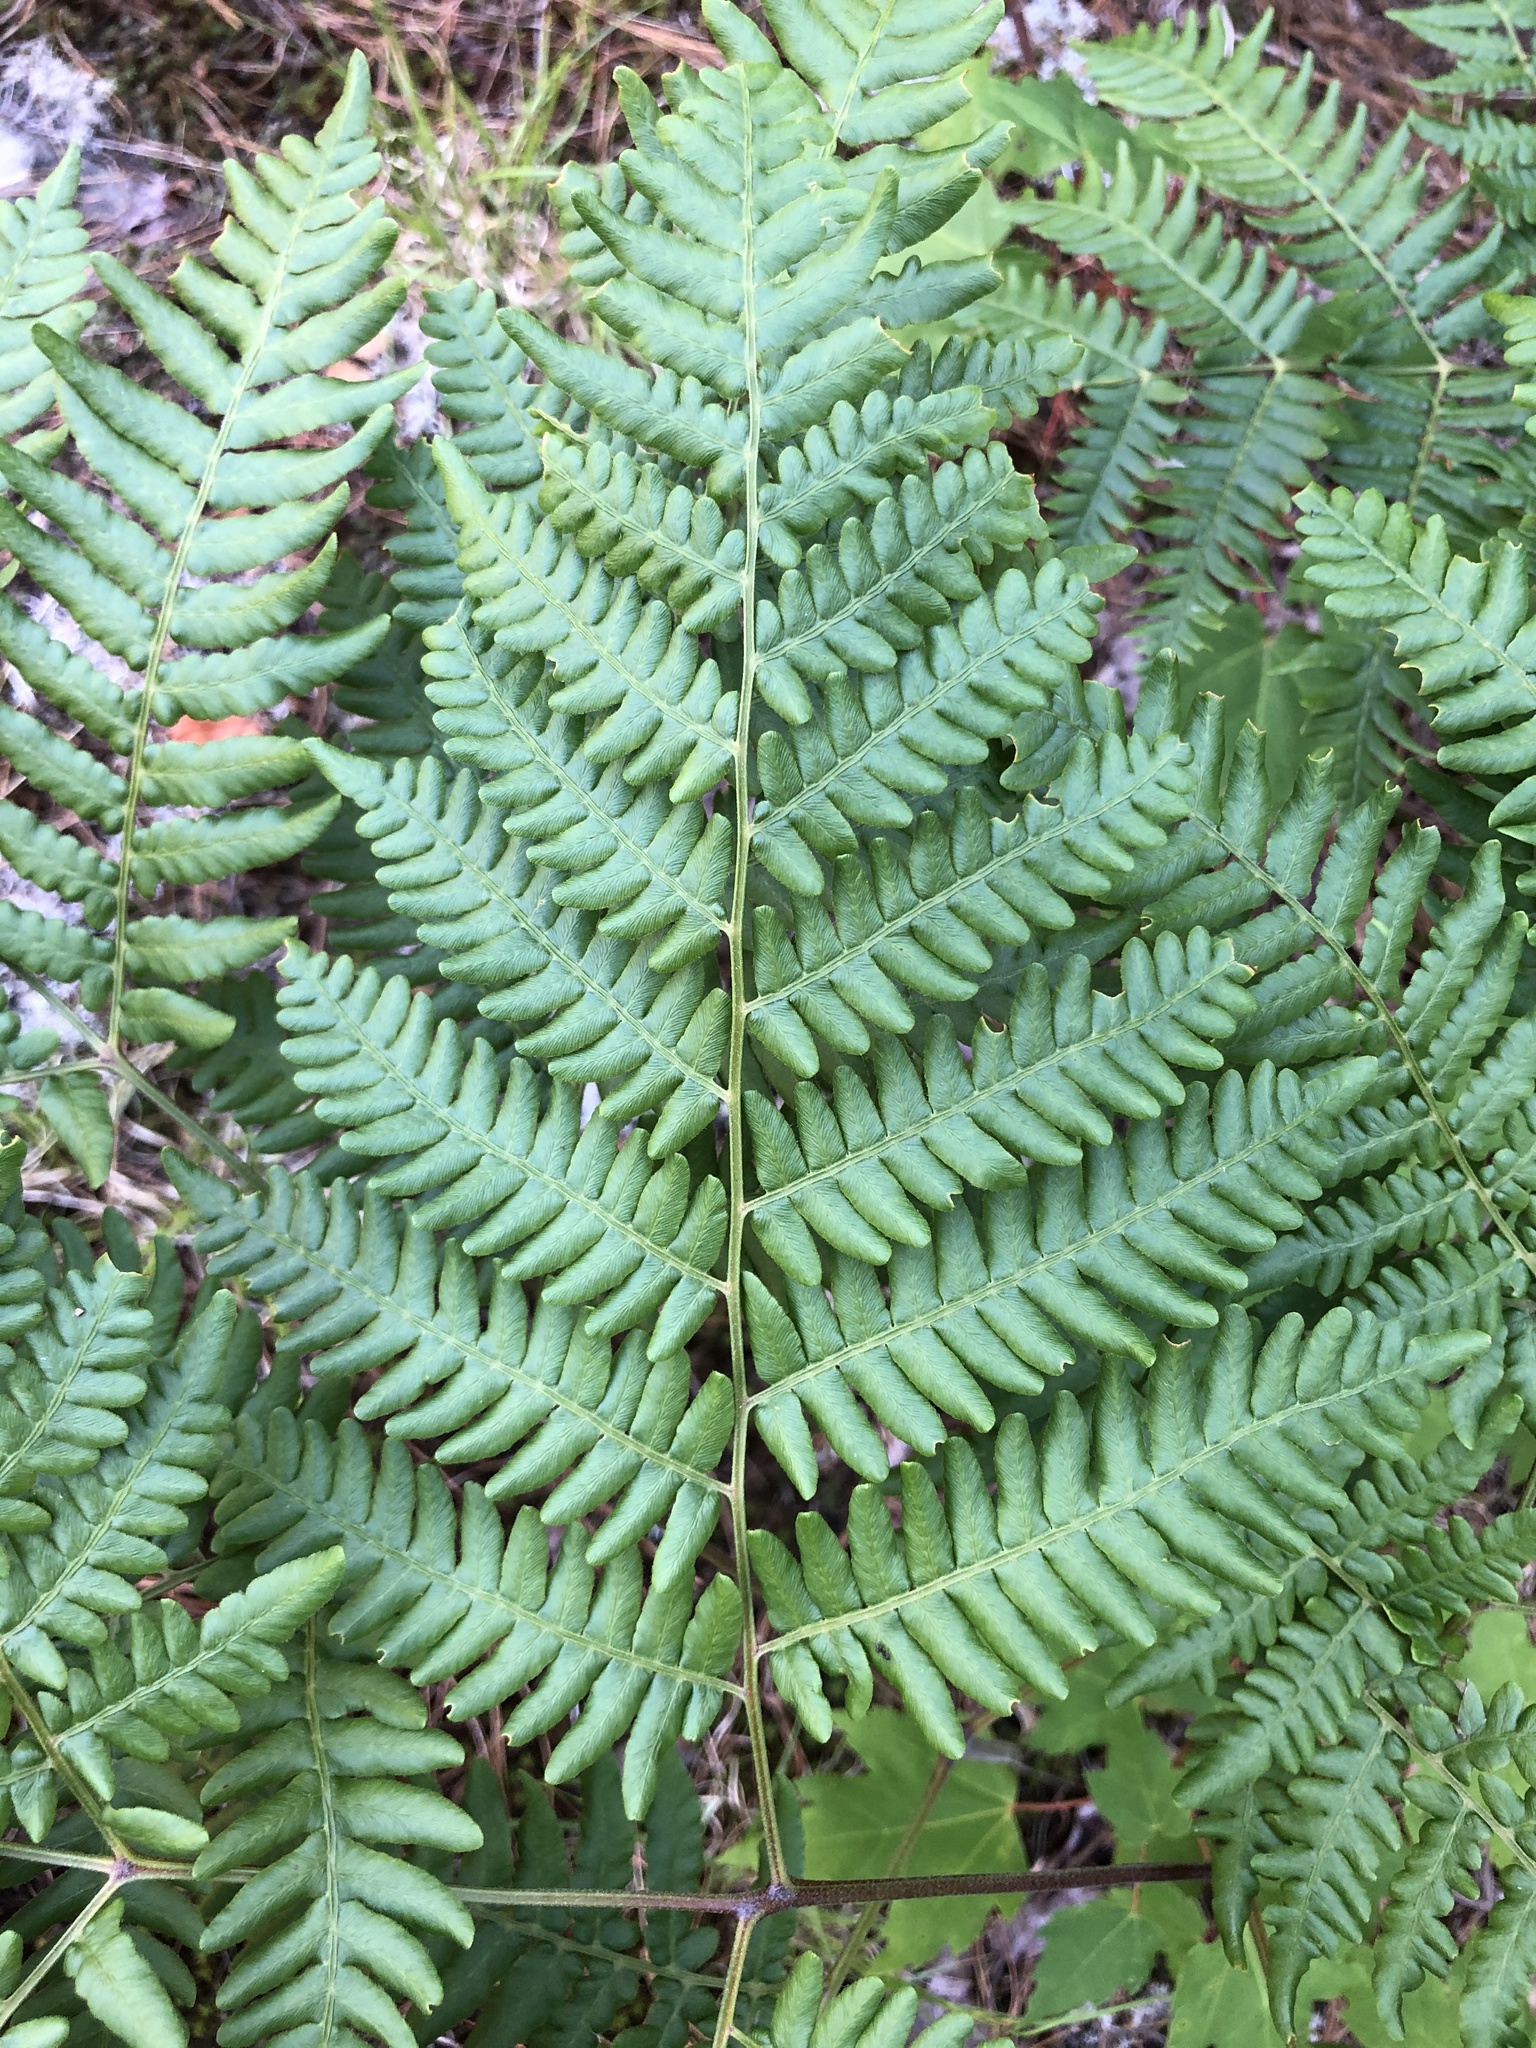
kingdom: Plantae
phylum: Tracheophyta
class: Polypodiopsida
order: Polypodiales
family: Dennstaedtiaceae
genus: Pteridium
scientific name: Pteridium aquilinum
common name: Bracken
